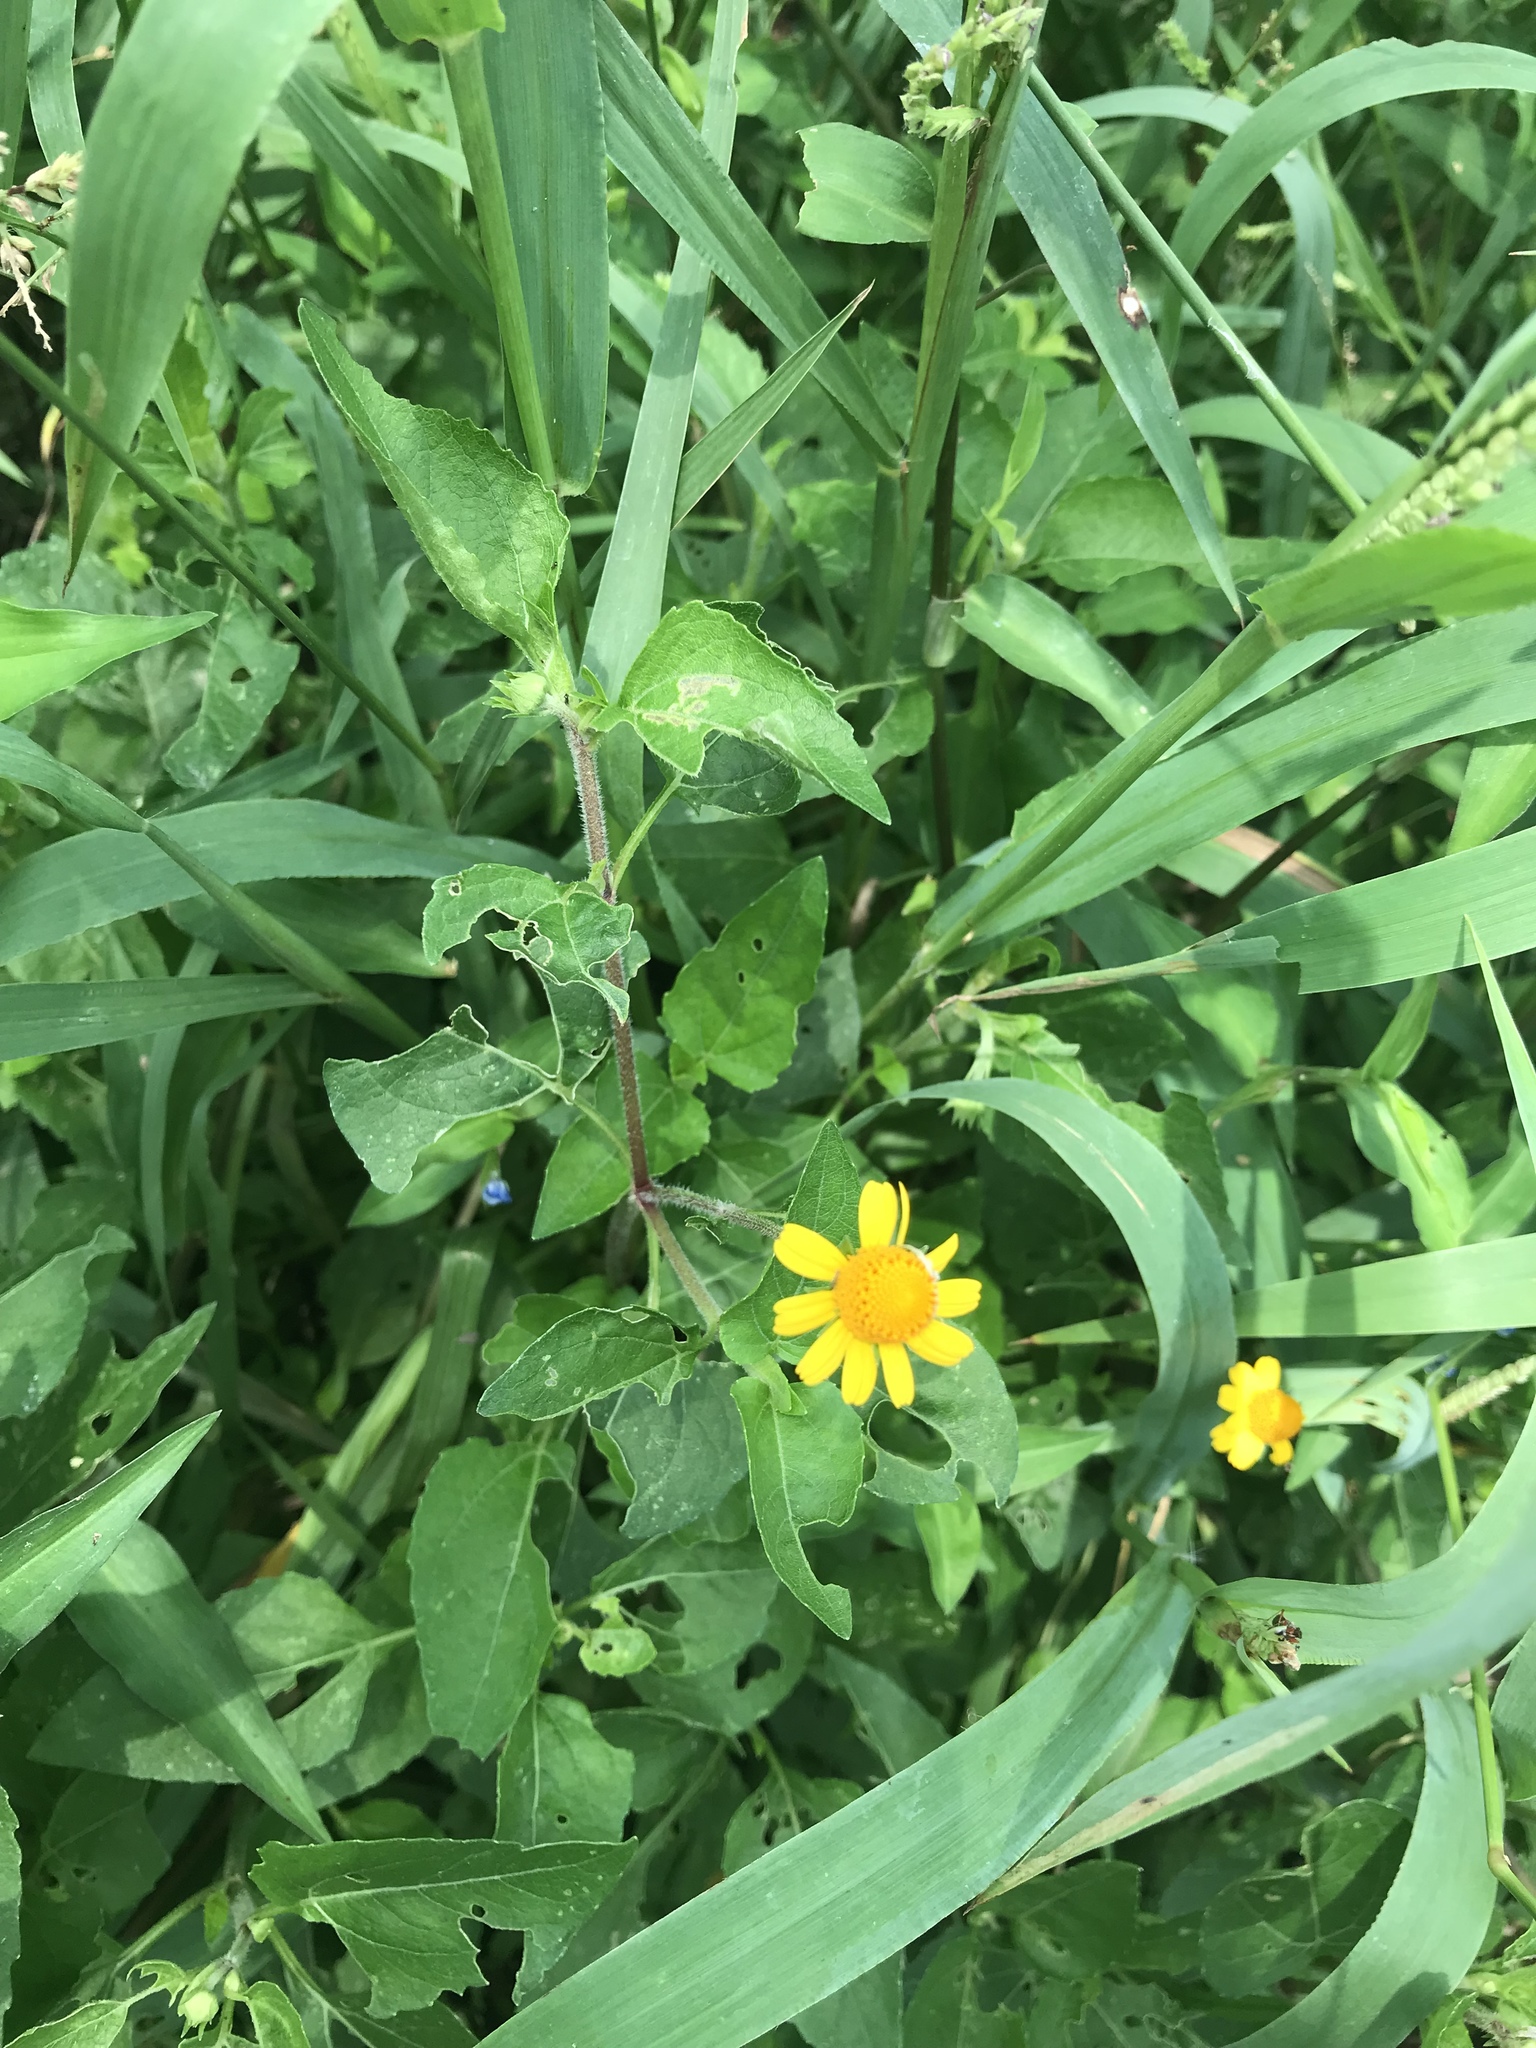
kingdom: Plantae
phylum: Tracheophyta
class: Magnoliopsida
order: Asterales
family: Asteraceae
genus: Acmella
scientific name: Acmella repens
